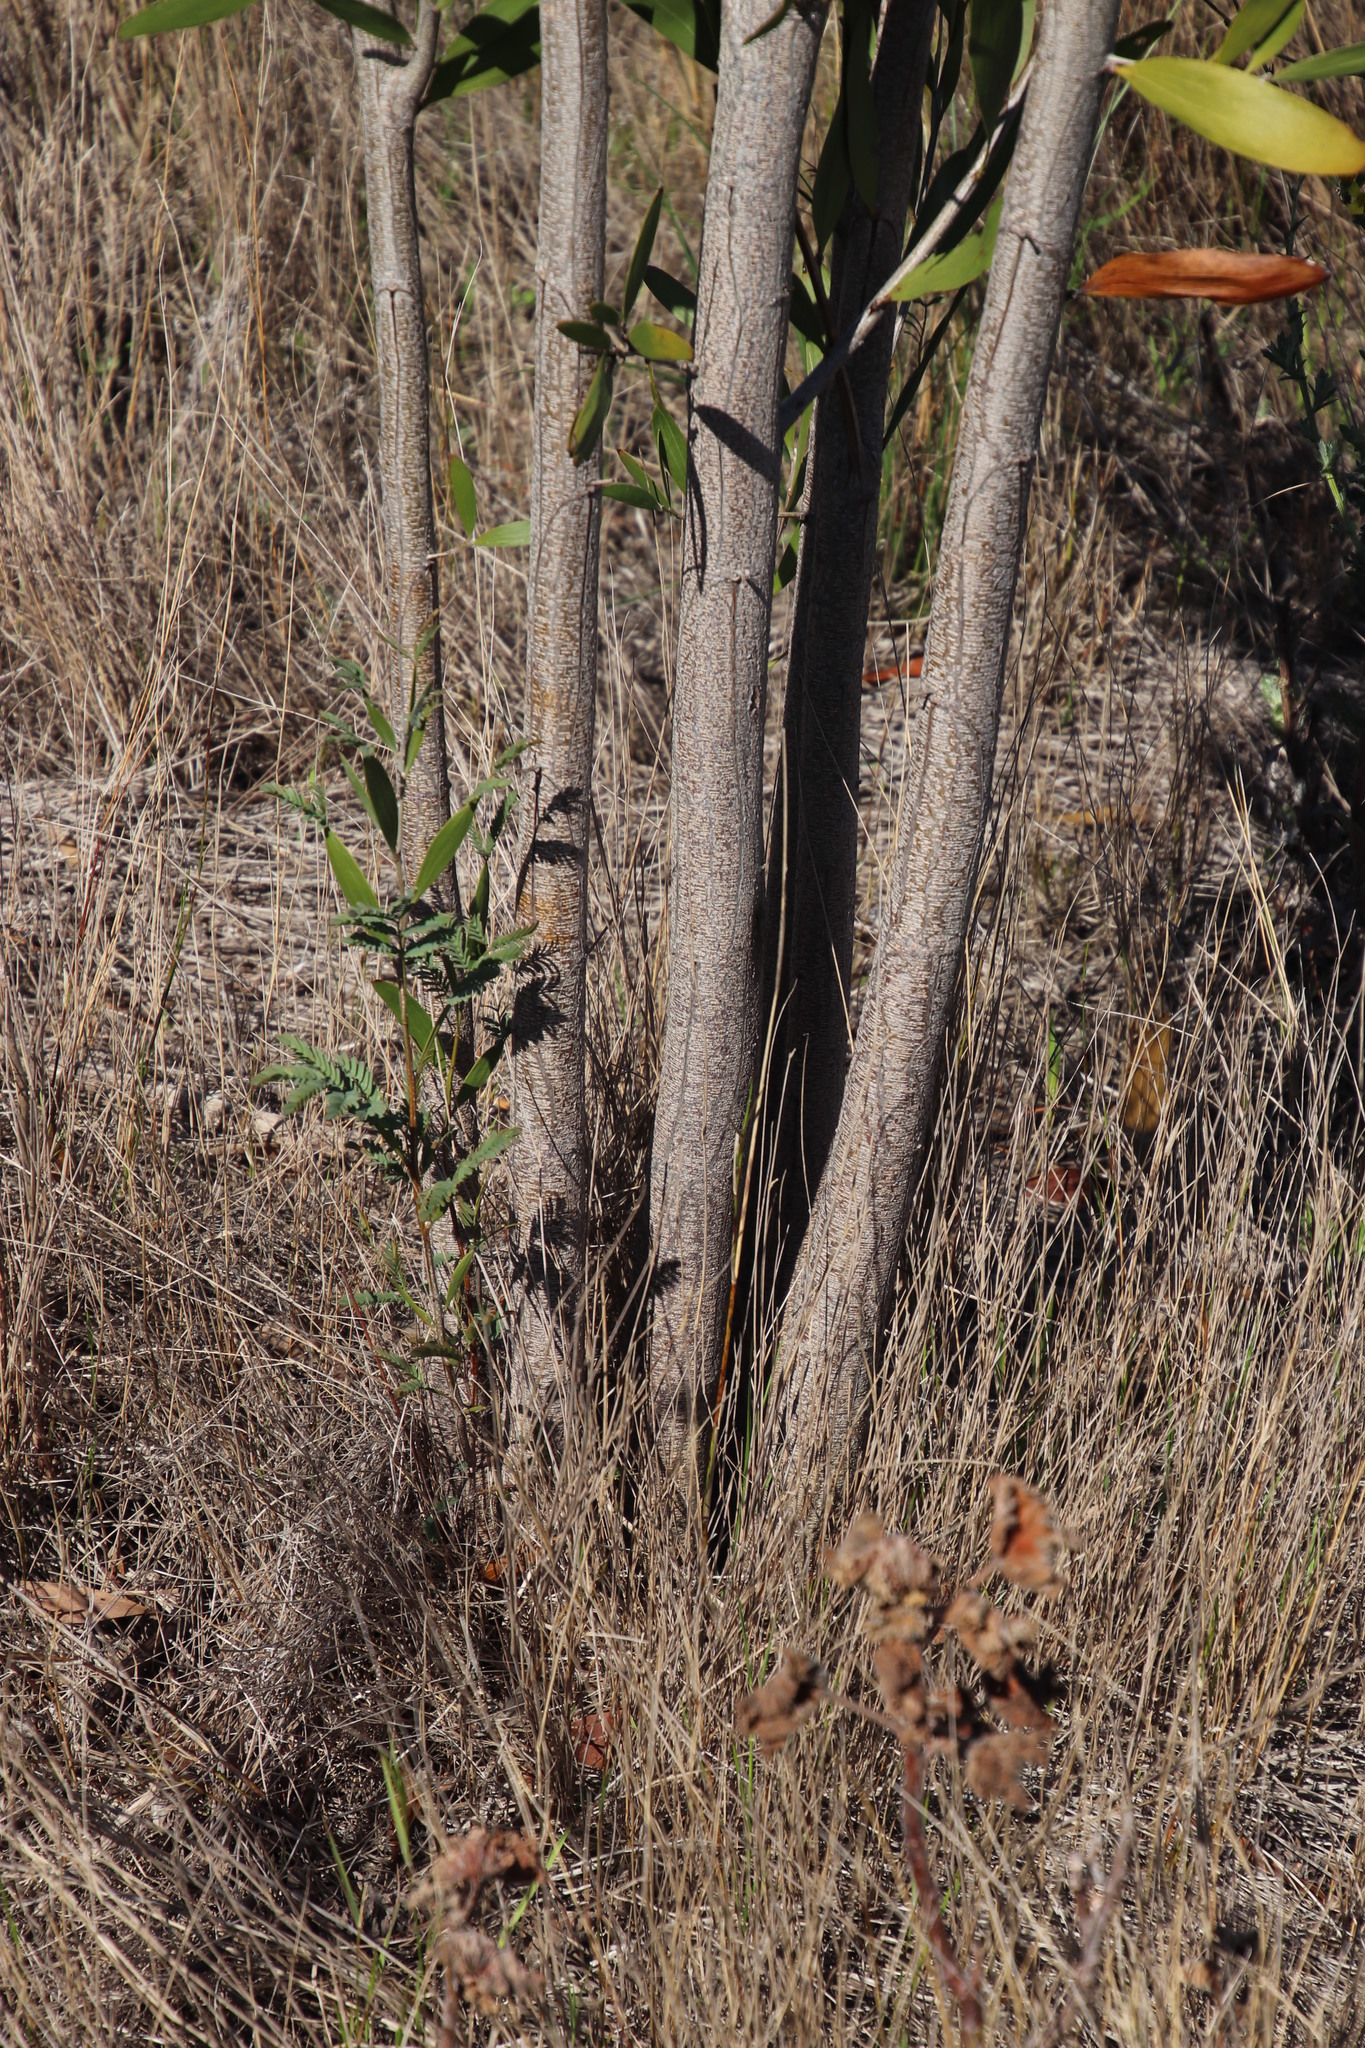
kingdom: Plantae
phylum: Tracheophyta
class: Magnoliopsida
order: Fabales
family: Fabaceae
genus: Acacia
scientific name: Acacia melanoxylon
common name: Blackwood
